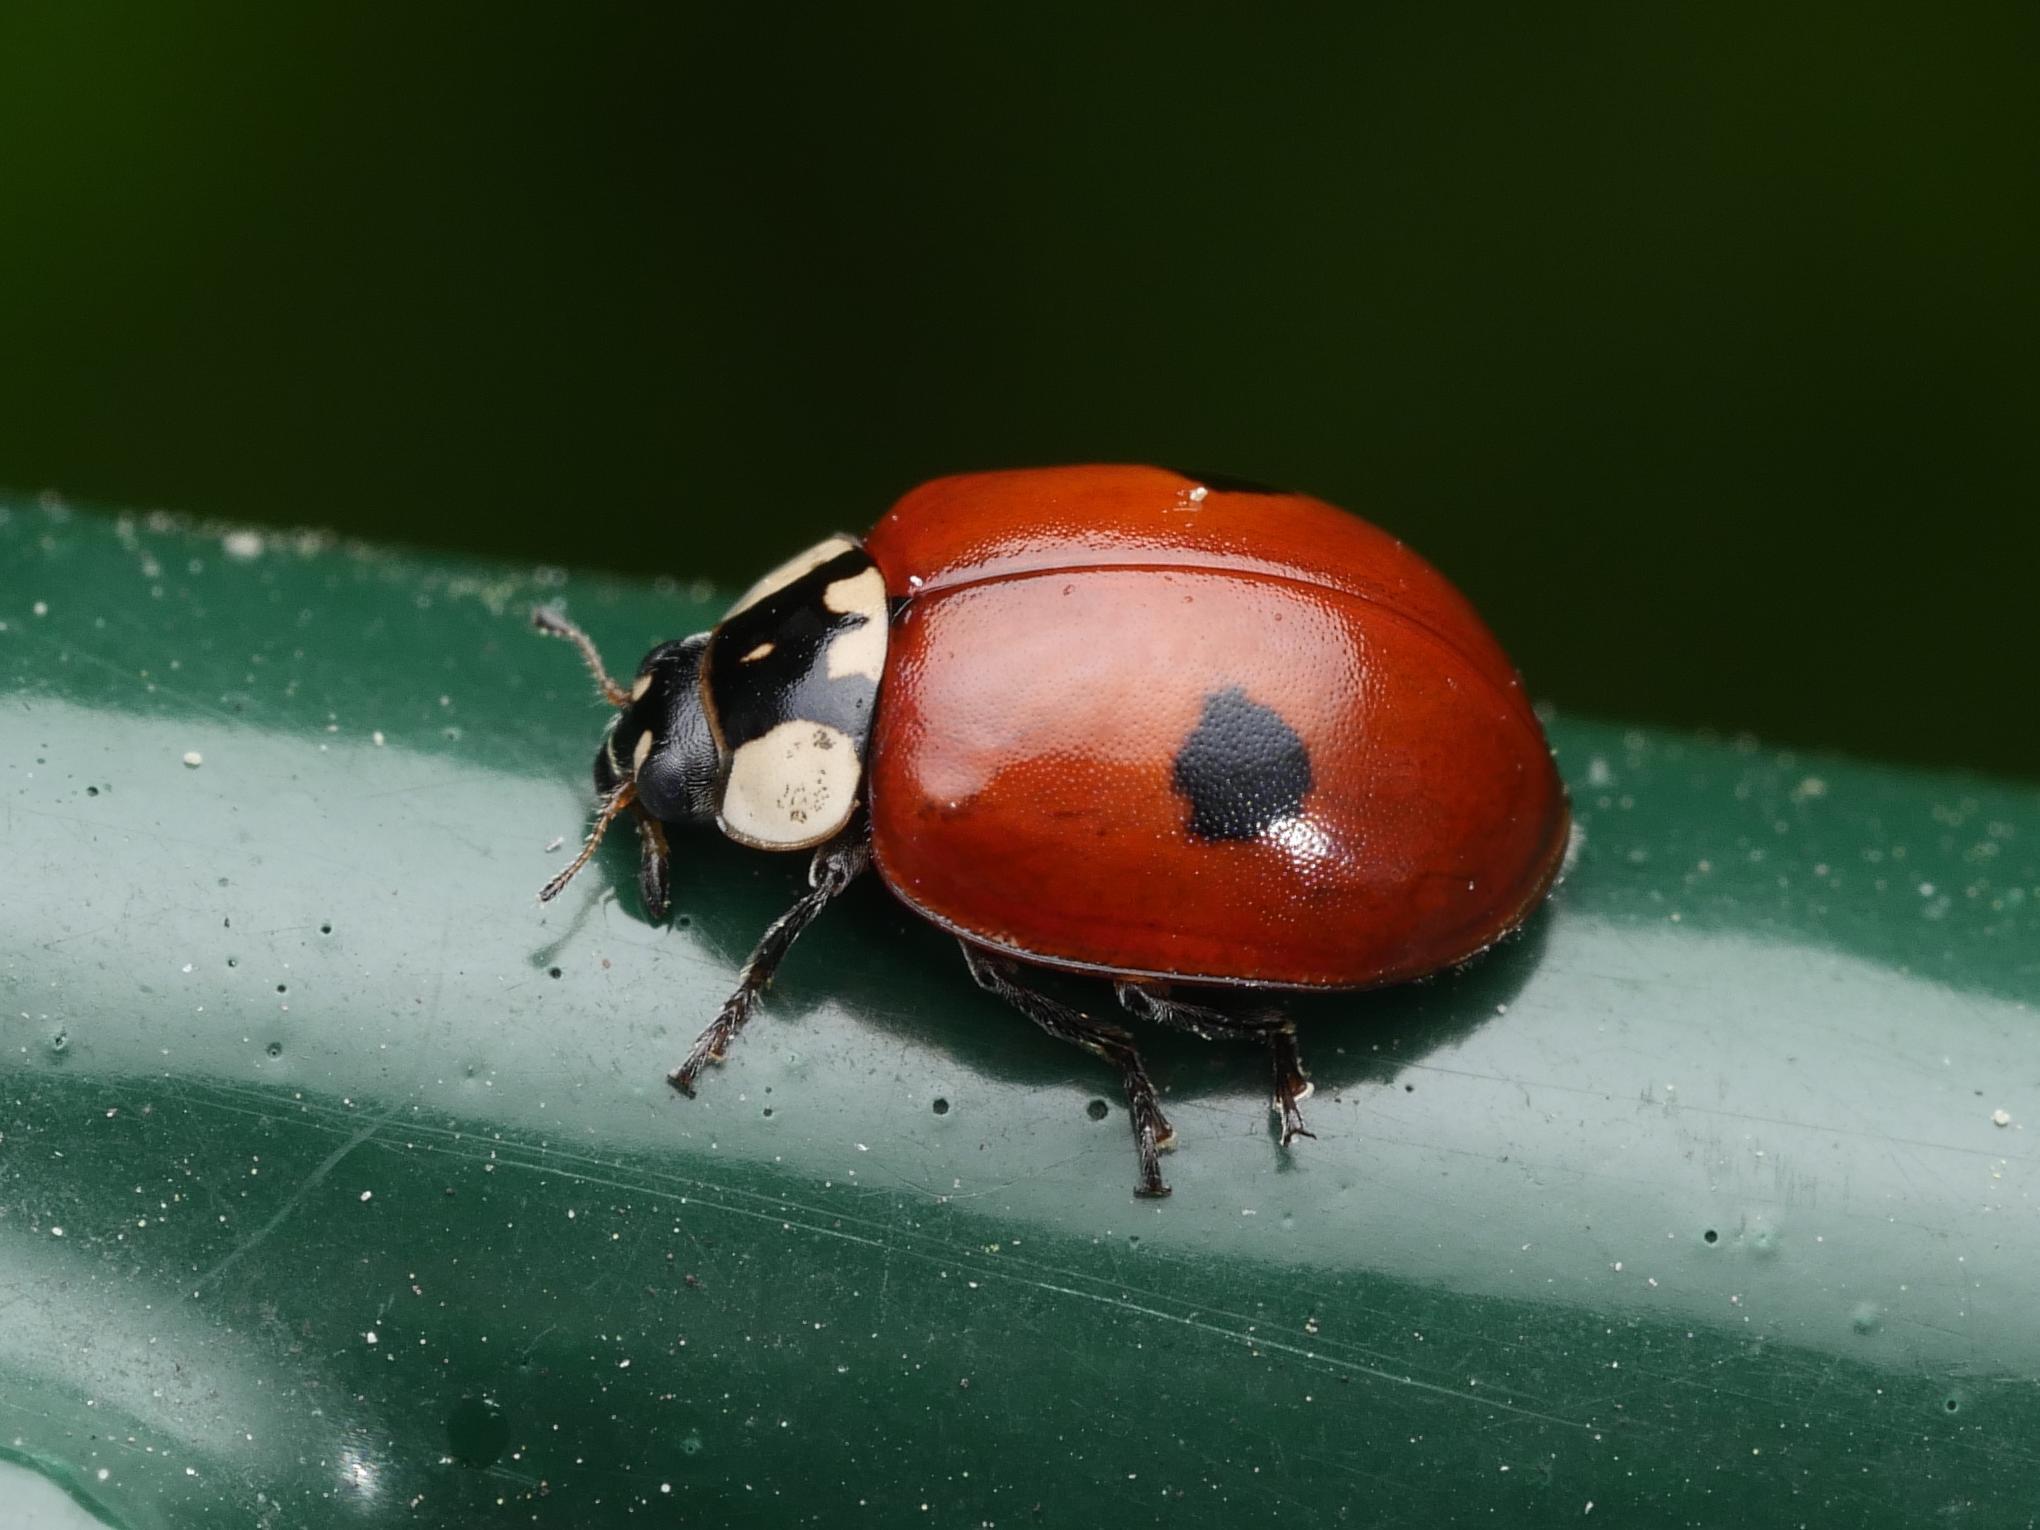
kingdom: Animalia
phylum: Arthropoda
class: Insecta
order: Coleoptera
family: Coccinellidae
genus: Adalia
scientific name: Adalia bipunctata
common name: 2-spot ladybird
